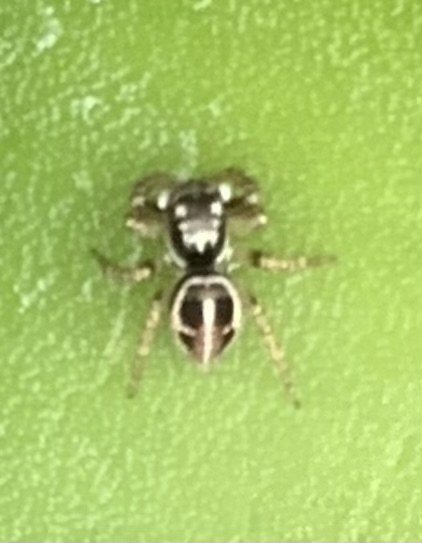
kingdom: Animalia
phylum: Arthropoda
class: Arachnida
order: Araneae
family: Salticidae
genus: Anasaitis
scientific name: Anasaitis canosa
